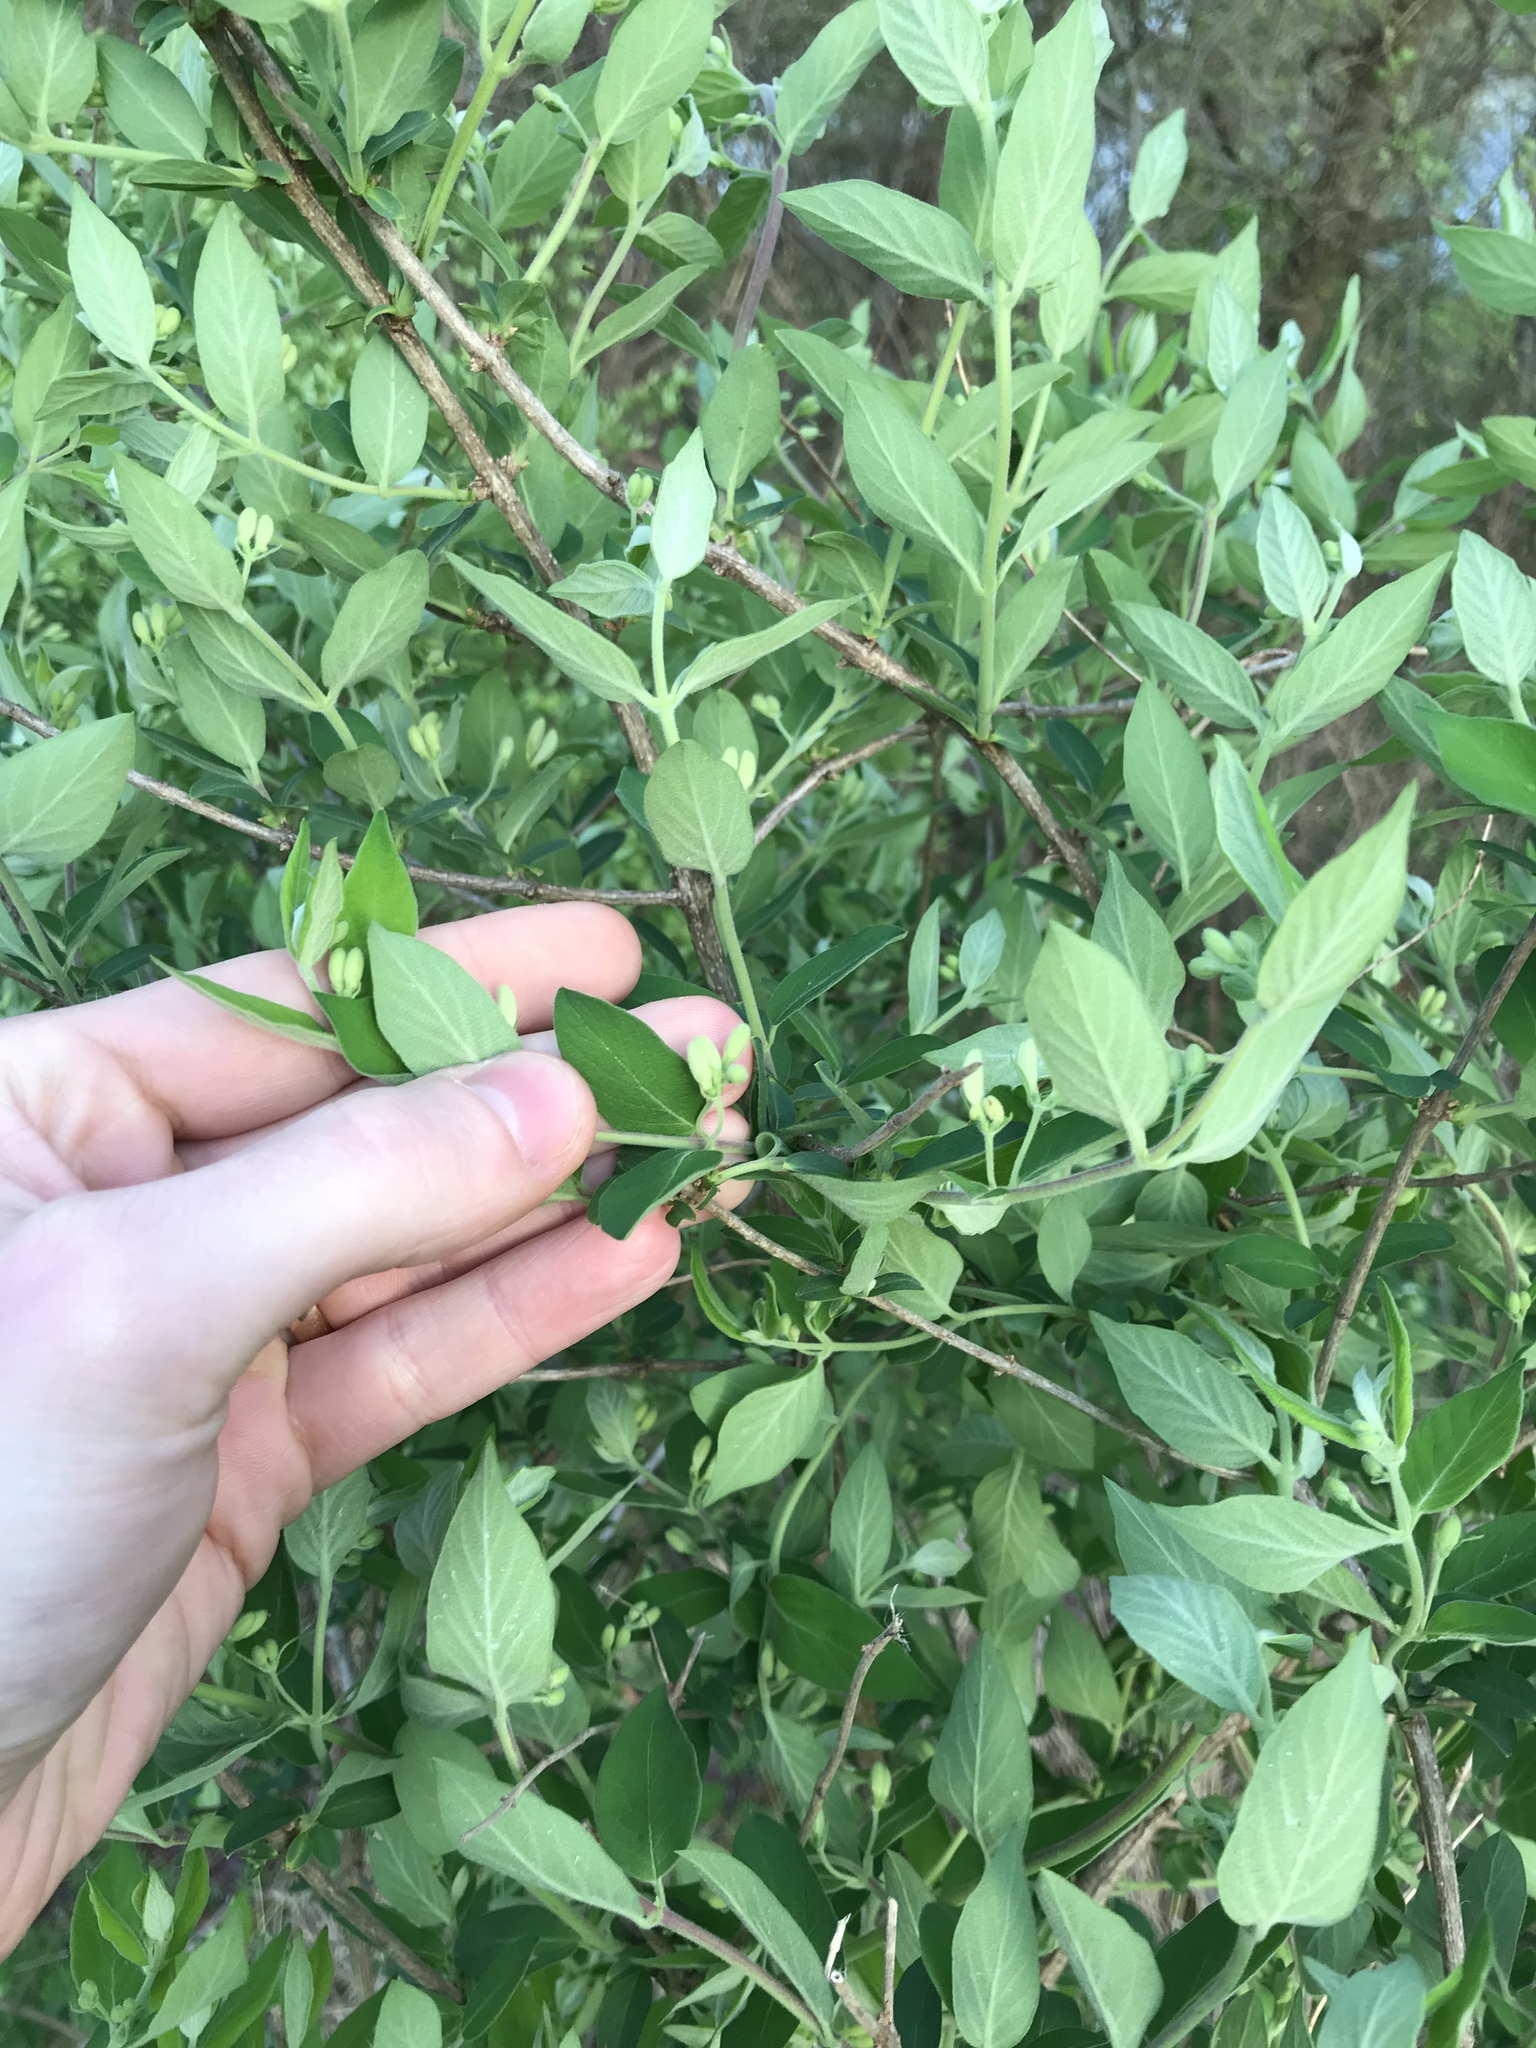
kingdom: Plantae
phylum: Tracheophyta
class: Magnoliopsida
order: Dipsacales
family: Caprifoliaceae
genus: Lonicera
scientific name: Lonicera morrowii
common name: Morrow's honeysuckle
